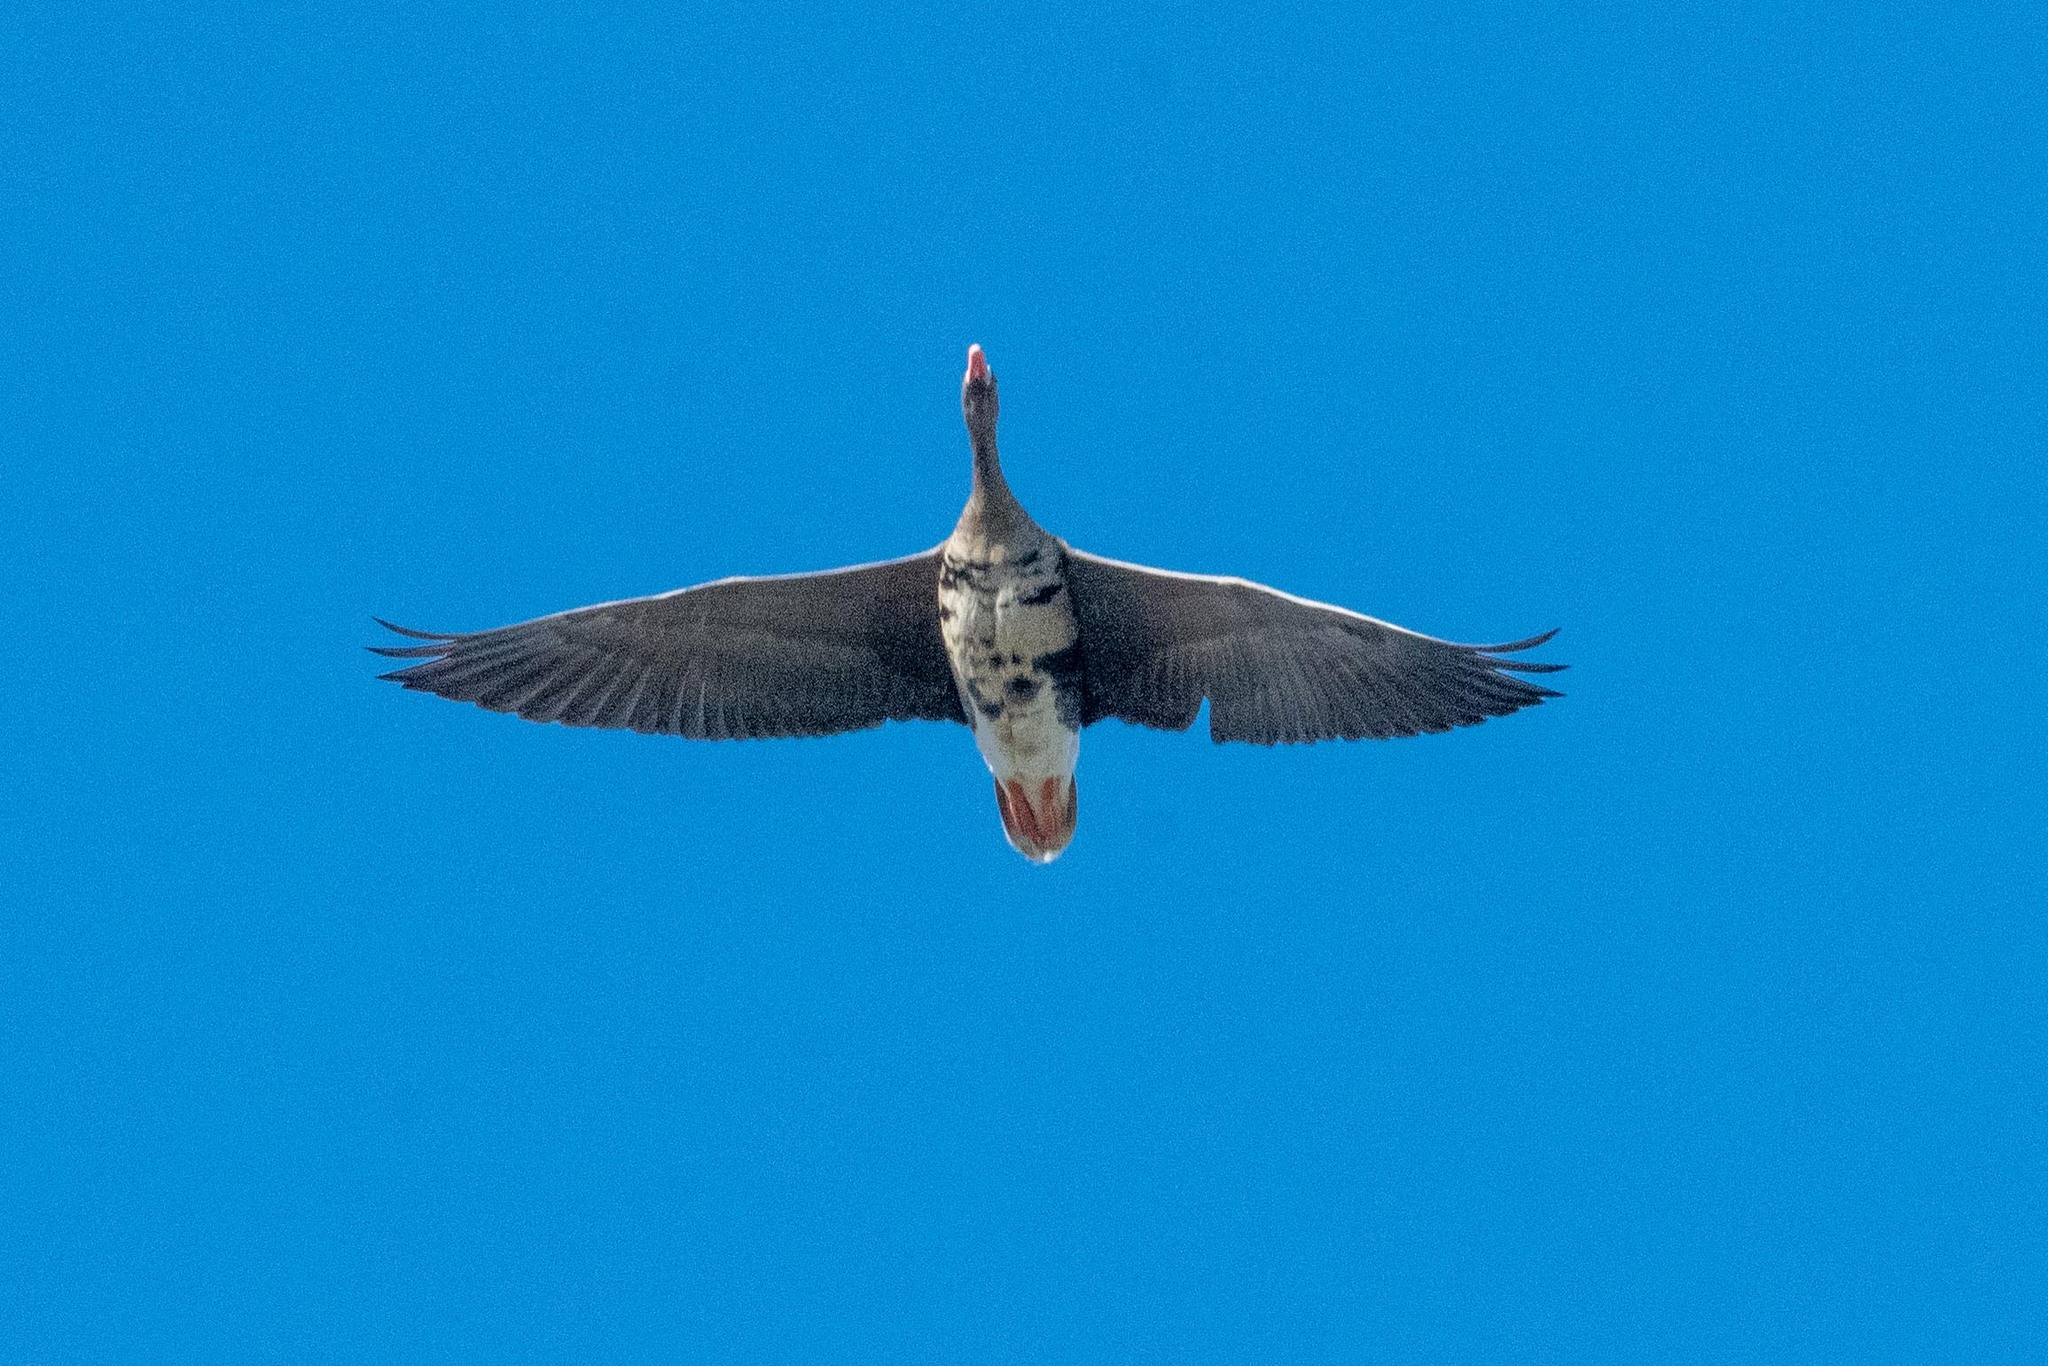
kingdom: Animalia
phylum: Chordata
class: Aves
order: Anseriformes
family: Anatidae
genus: Anser
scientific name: Anser albifrons
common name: Greater white-fronted goose
